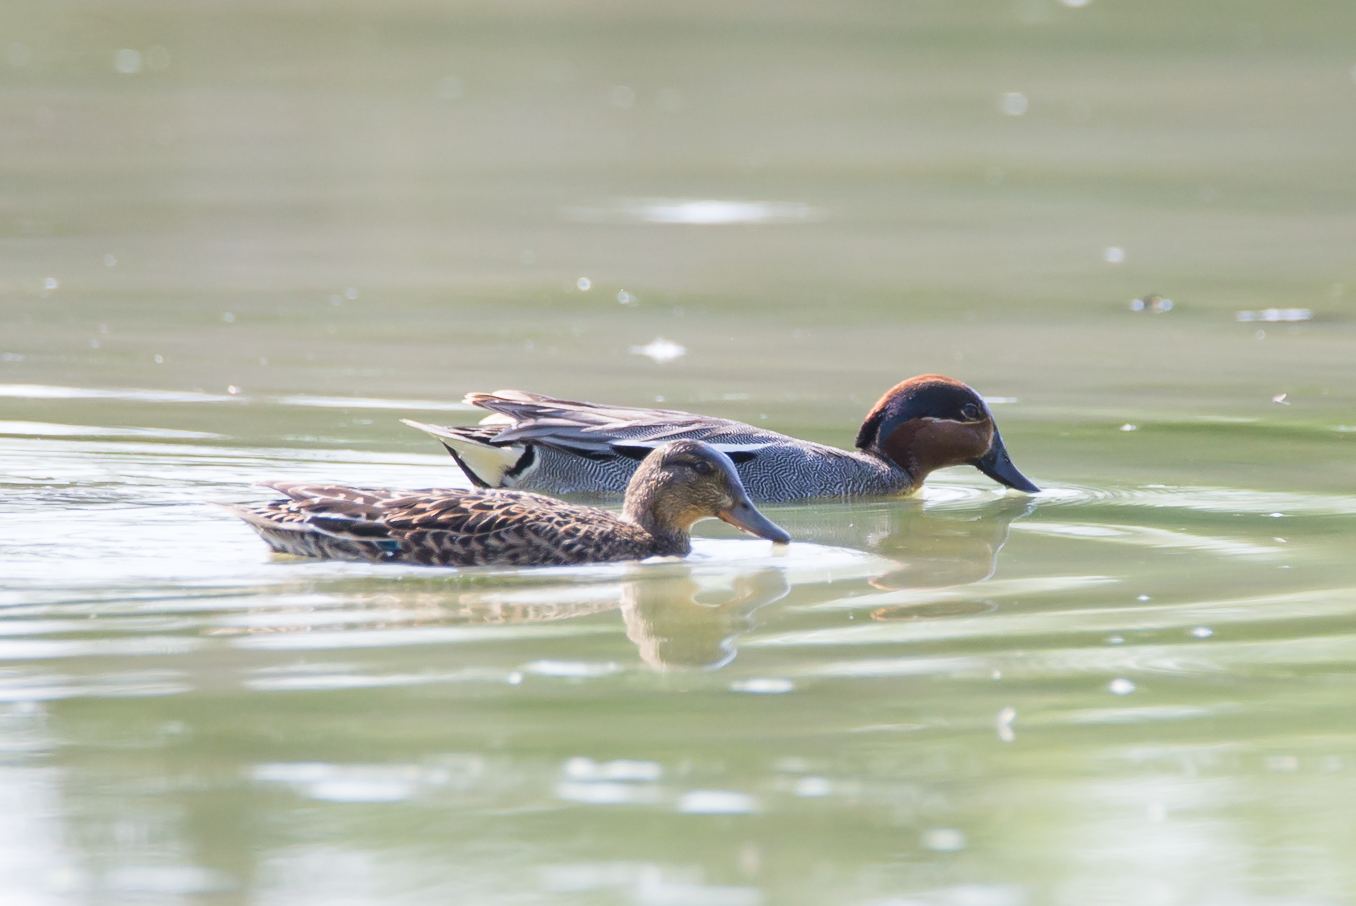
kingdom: Animalia
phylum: Chordata
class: Aves
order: Anseriformes
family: Anatidae
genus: Anas
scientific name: Anas crecca
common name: Eurasian teal
